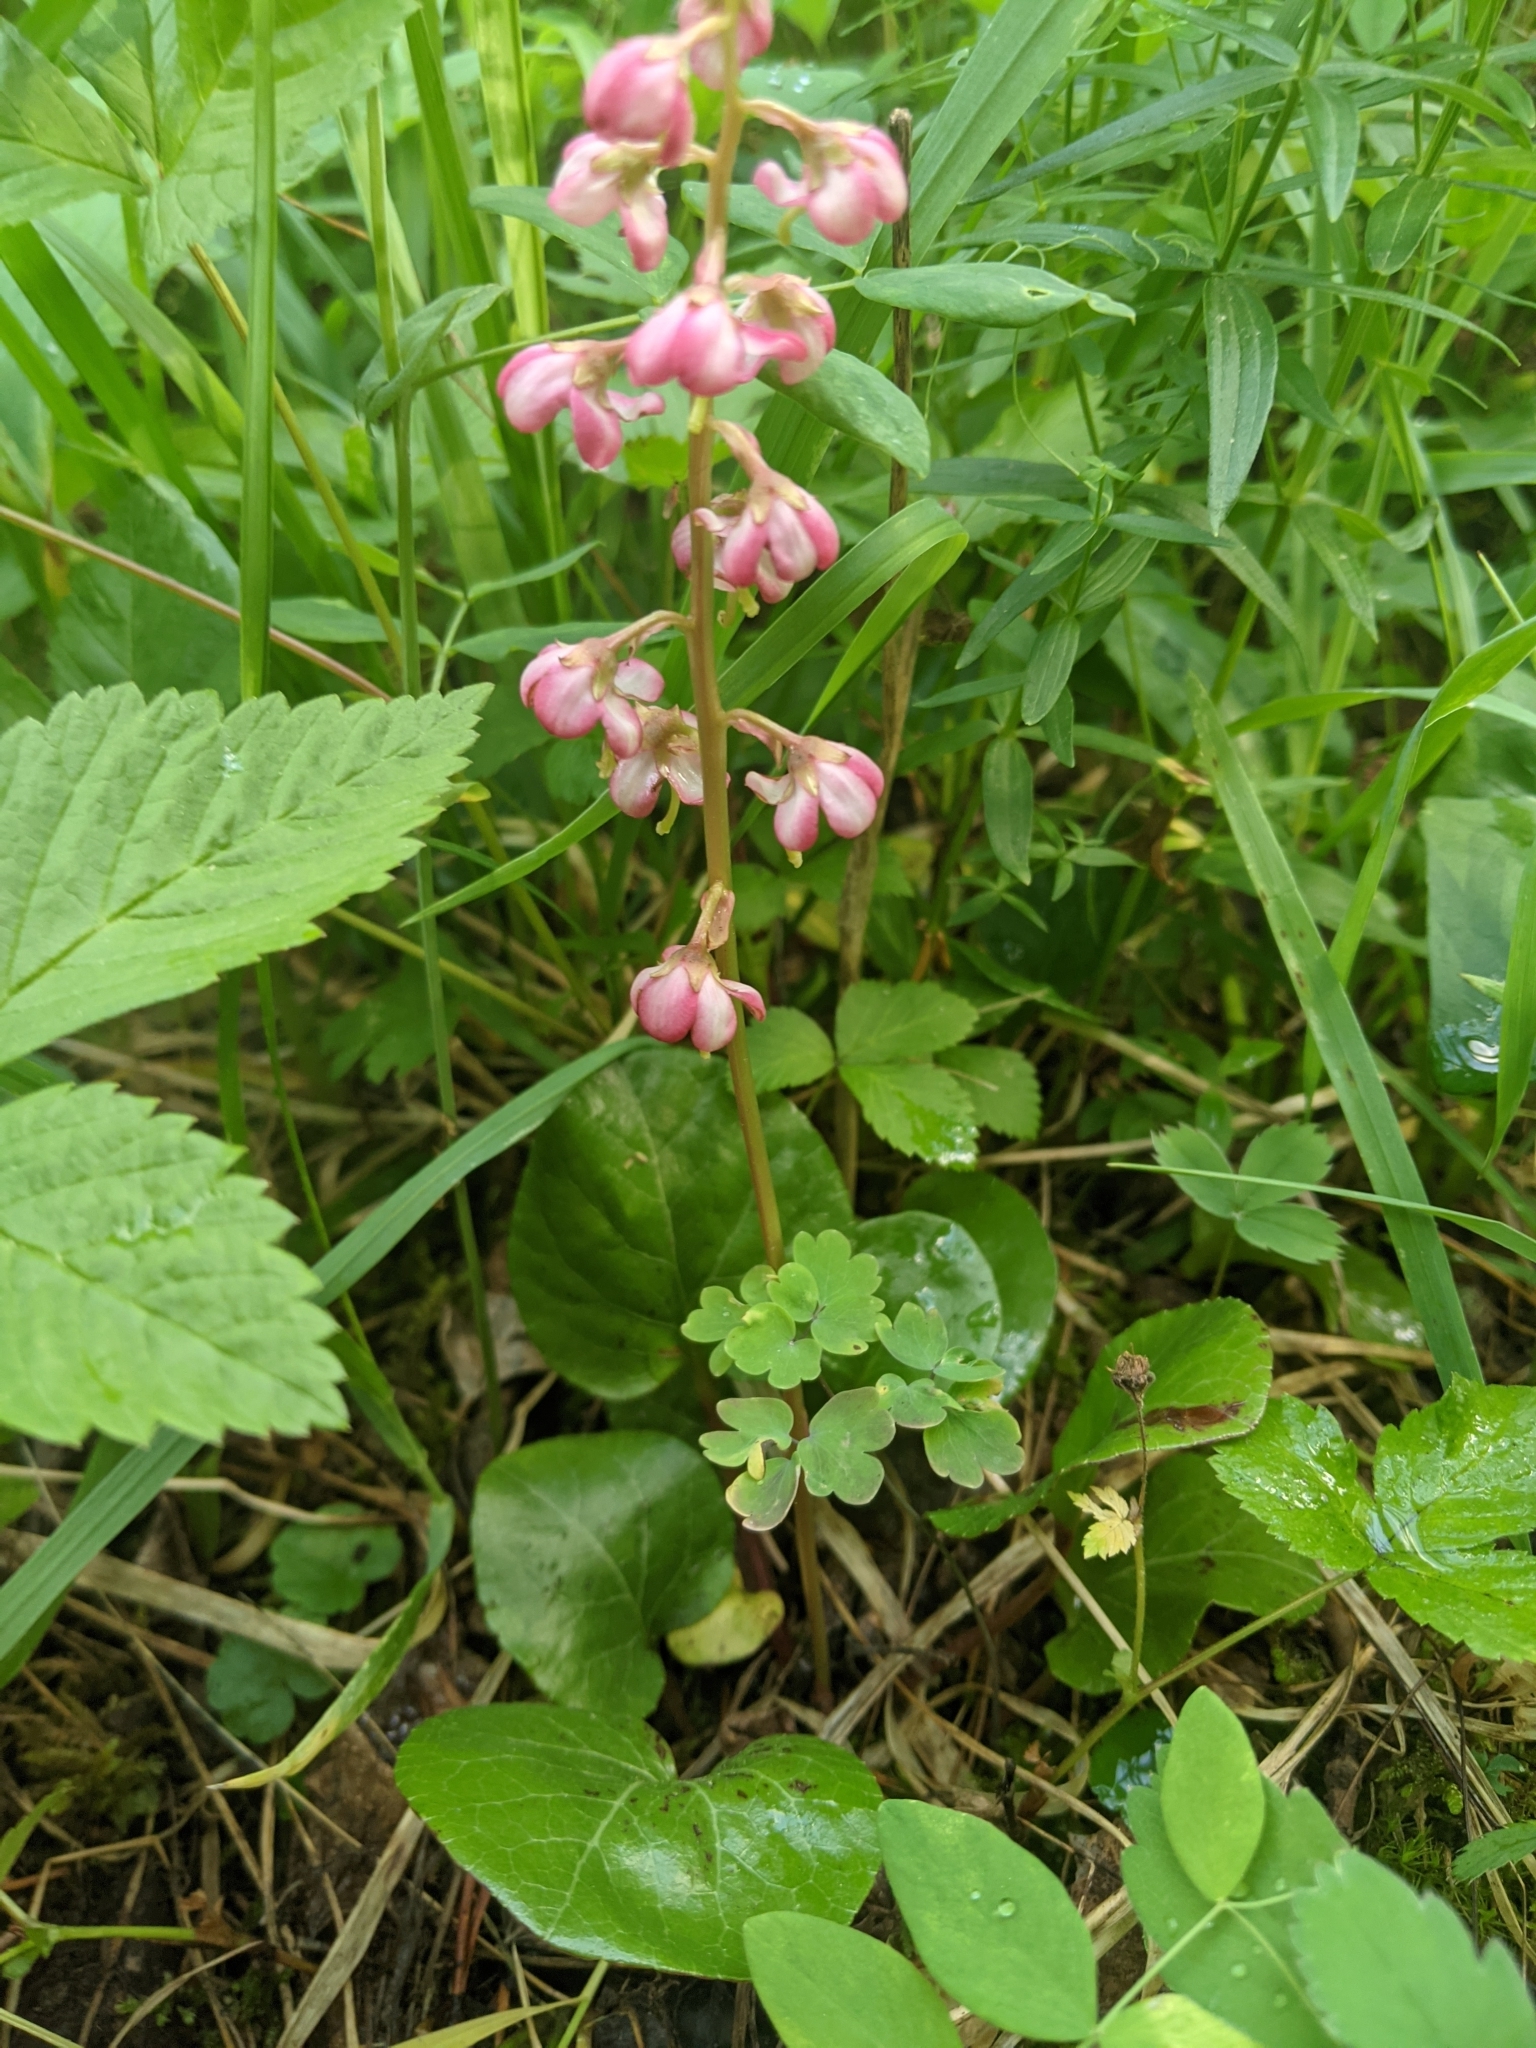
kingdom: Plantae
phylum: Tracheophyta
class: Magnoliopsida
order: Ericales
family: Ericaceae
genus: Pyrola
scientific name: Pyrola asarifolia
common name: Bog wintergreen
